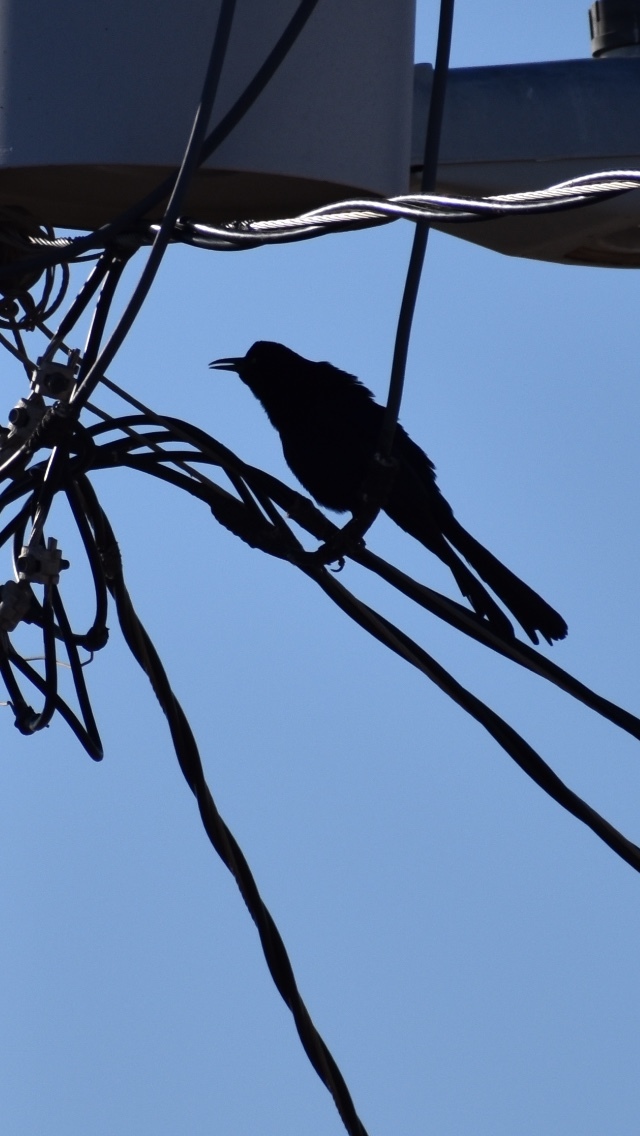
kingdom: Animalia
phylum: Chordata
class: Aves
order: Passeriformes
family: Icteridae
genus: Quiscalus
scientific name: Quiscalus mexicanus
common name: Great-tailed grackle
